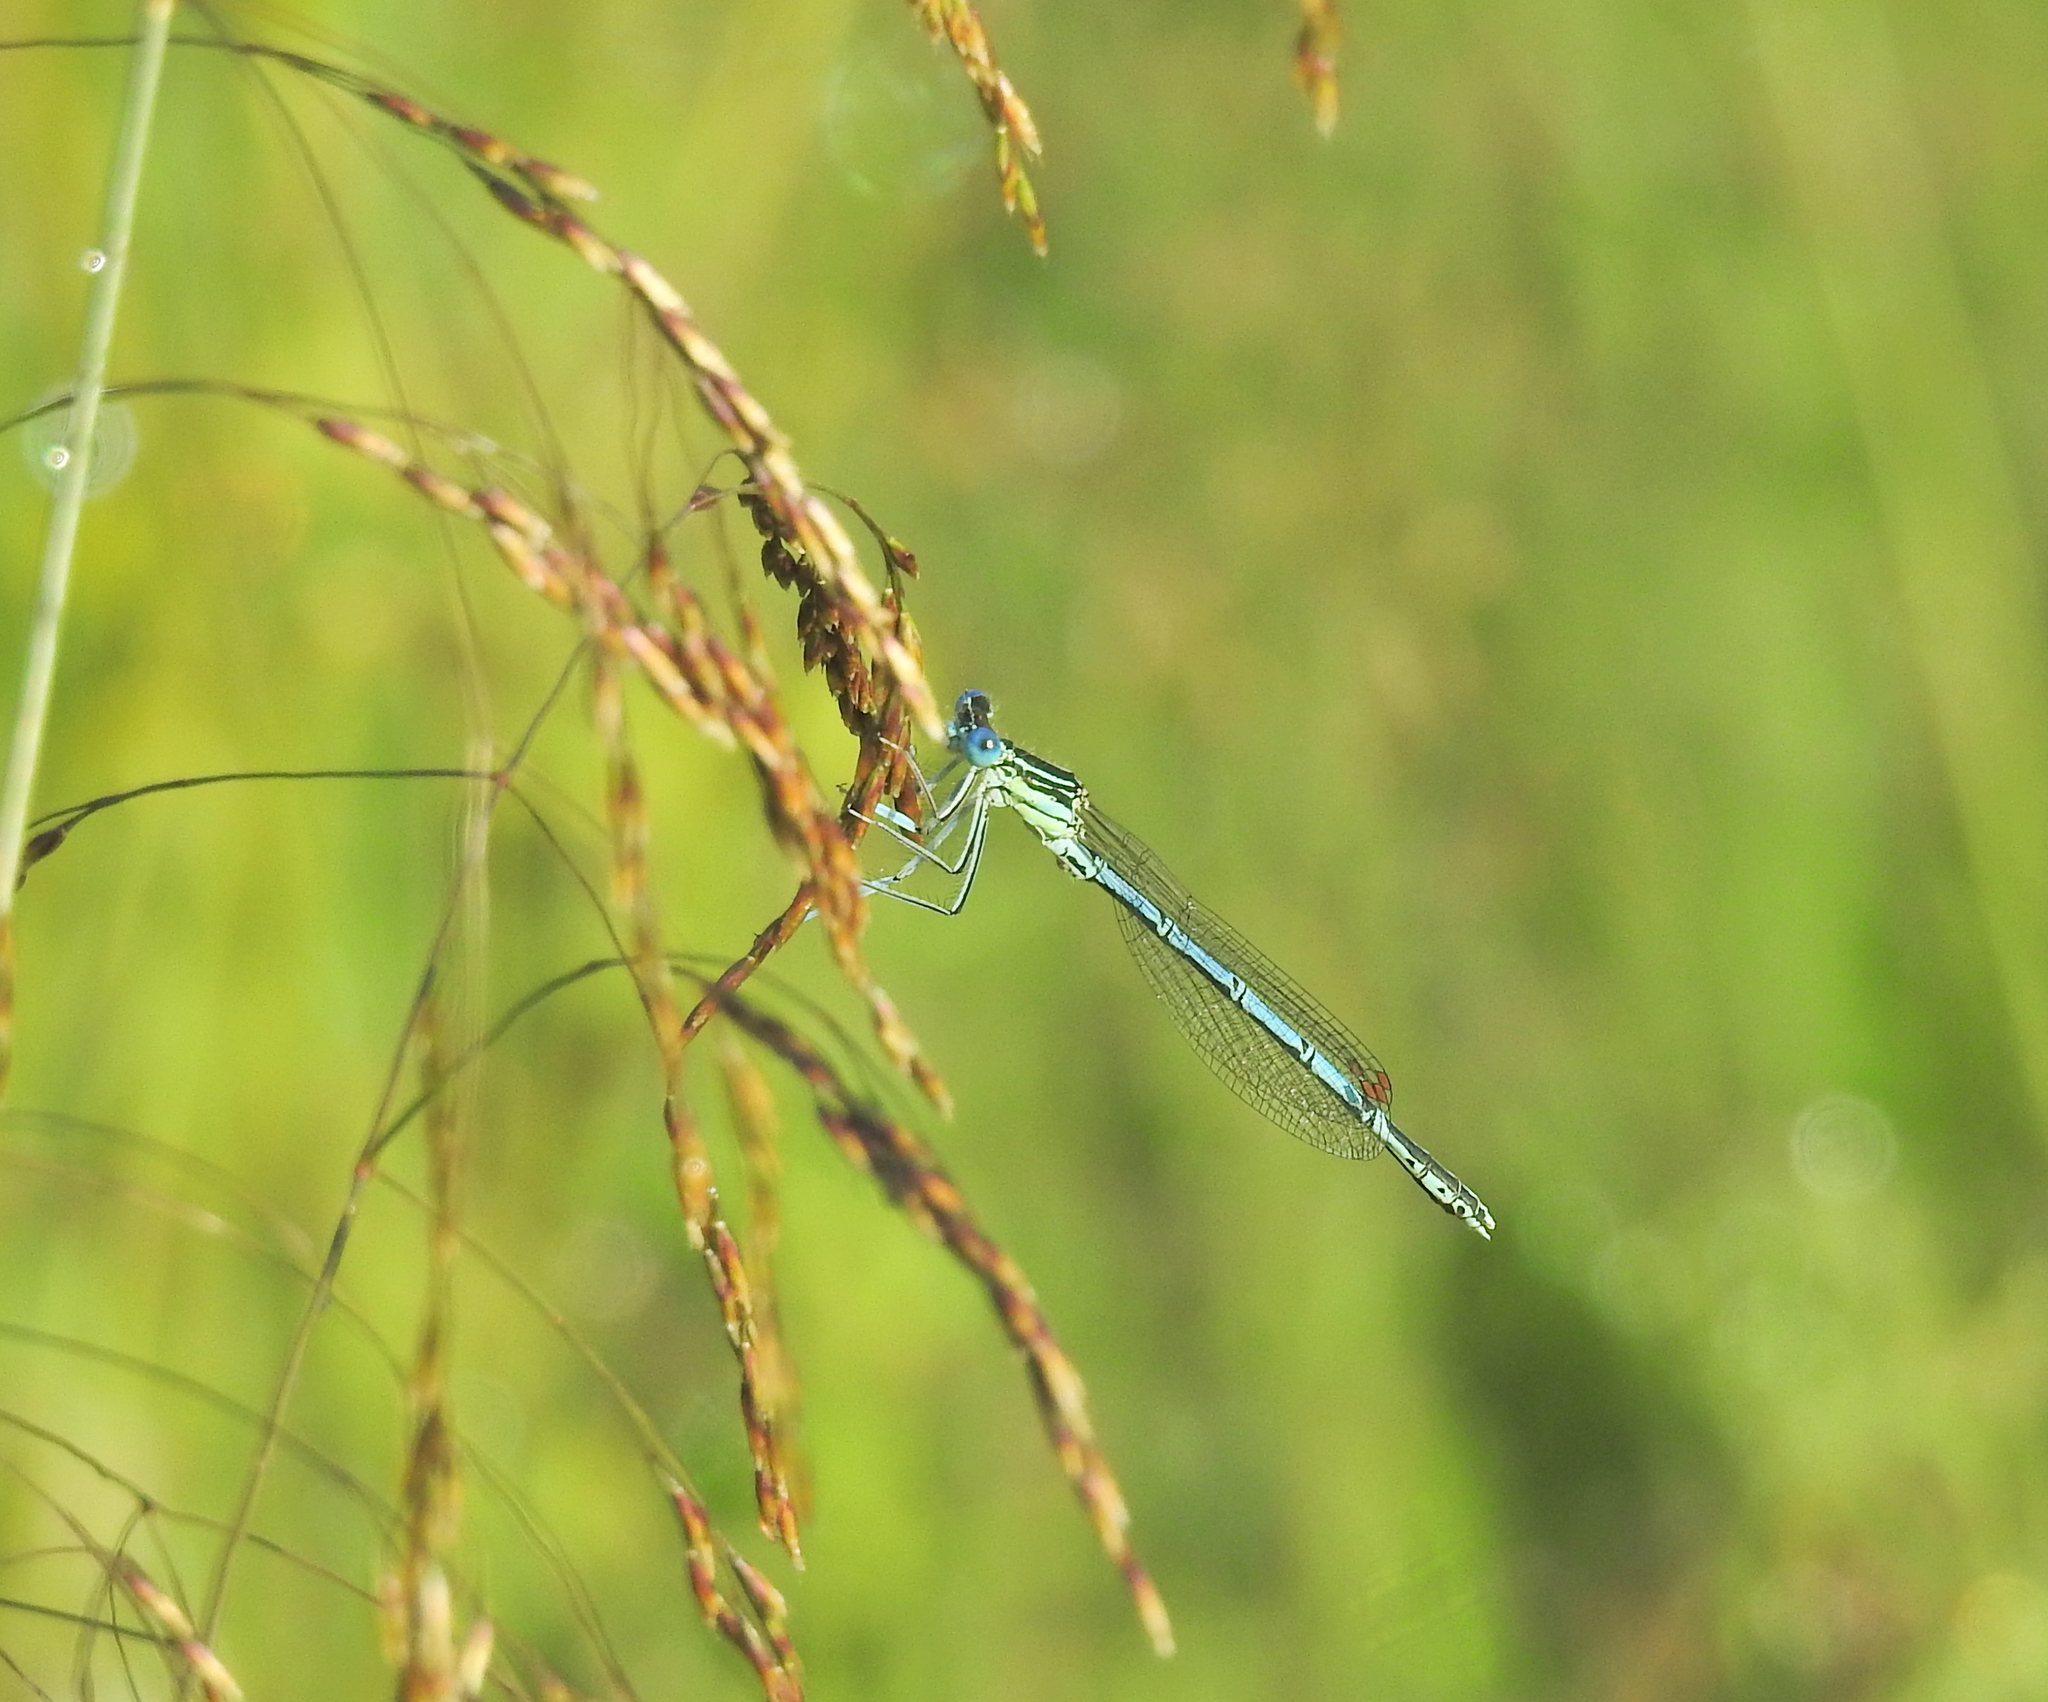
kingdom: Animalia
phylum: Arthropoda
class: Insecta
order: Odonata
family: Platycnemididae
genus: Platycnemis
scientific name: Platycnemis pennipes
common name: White-legged damselfly
